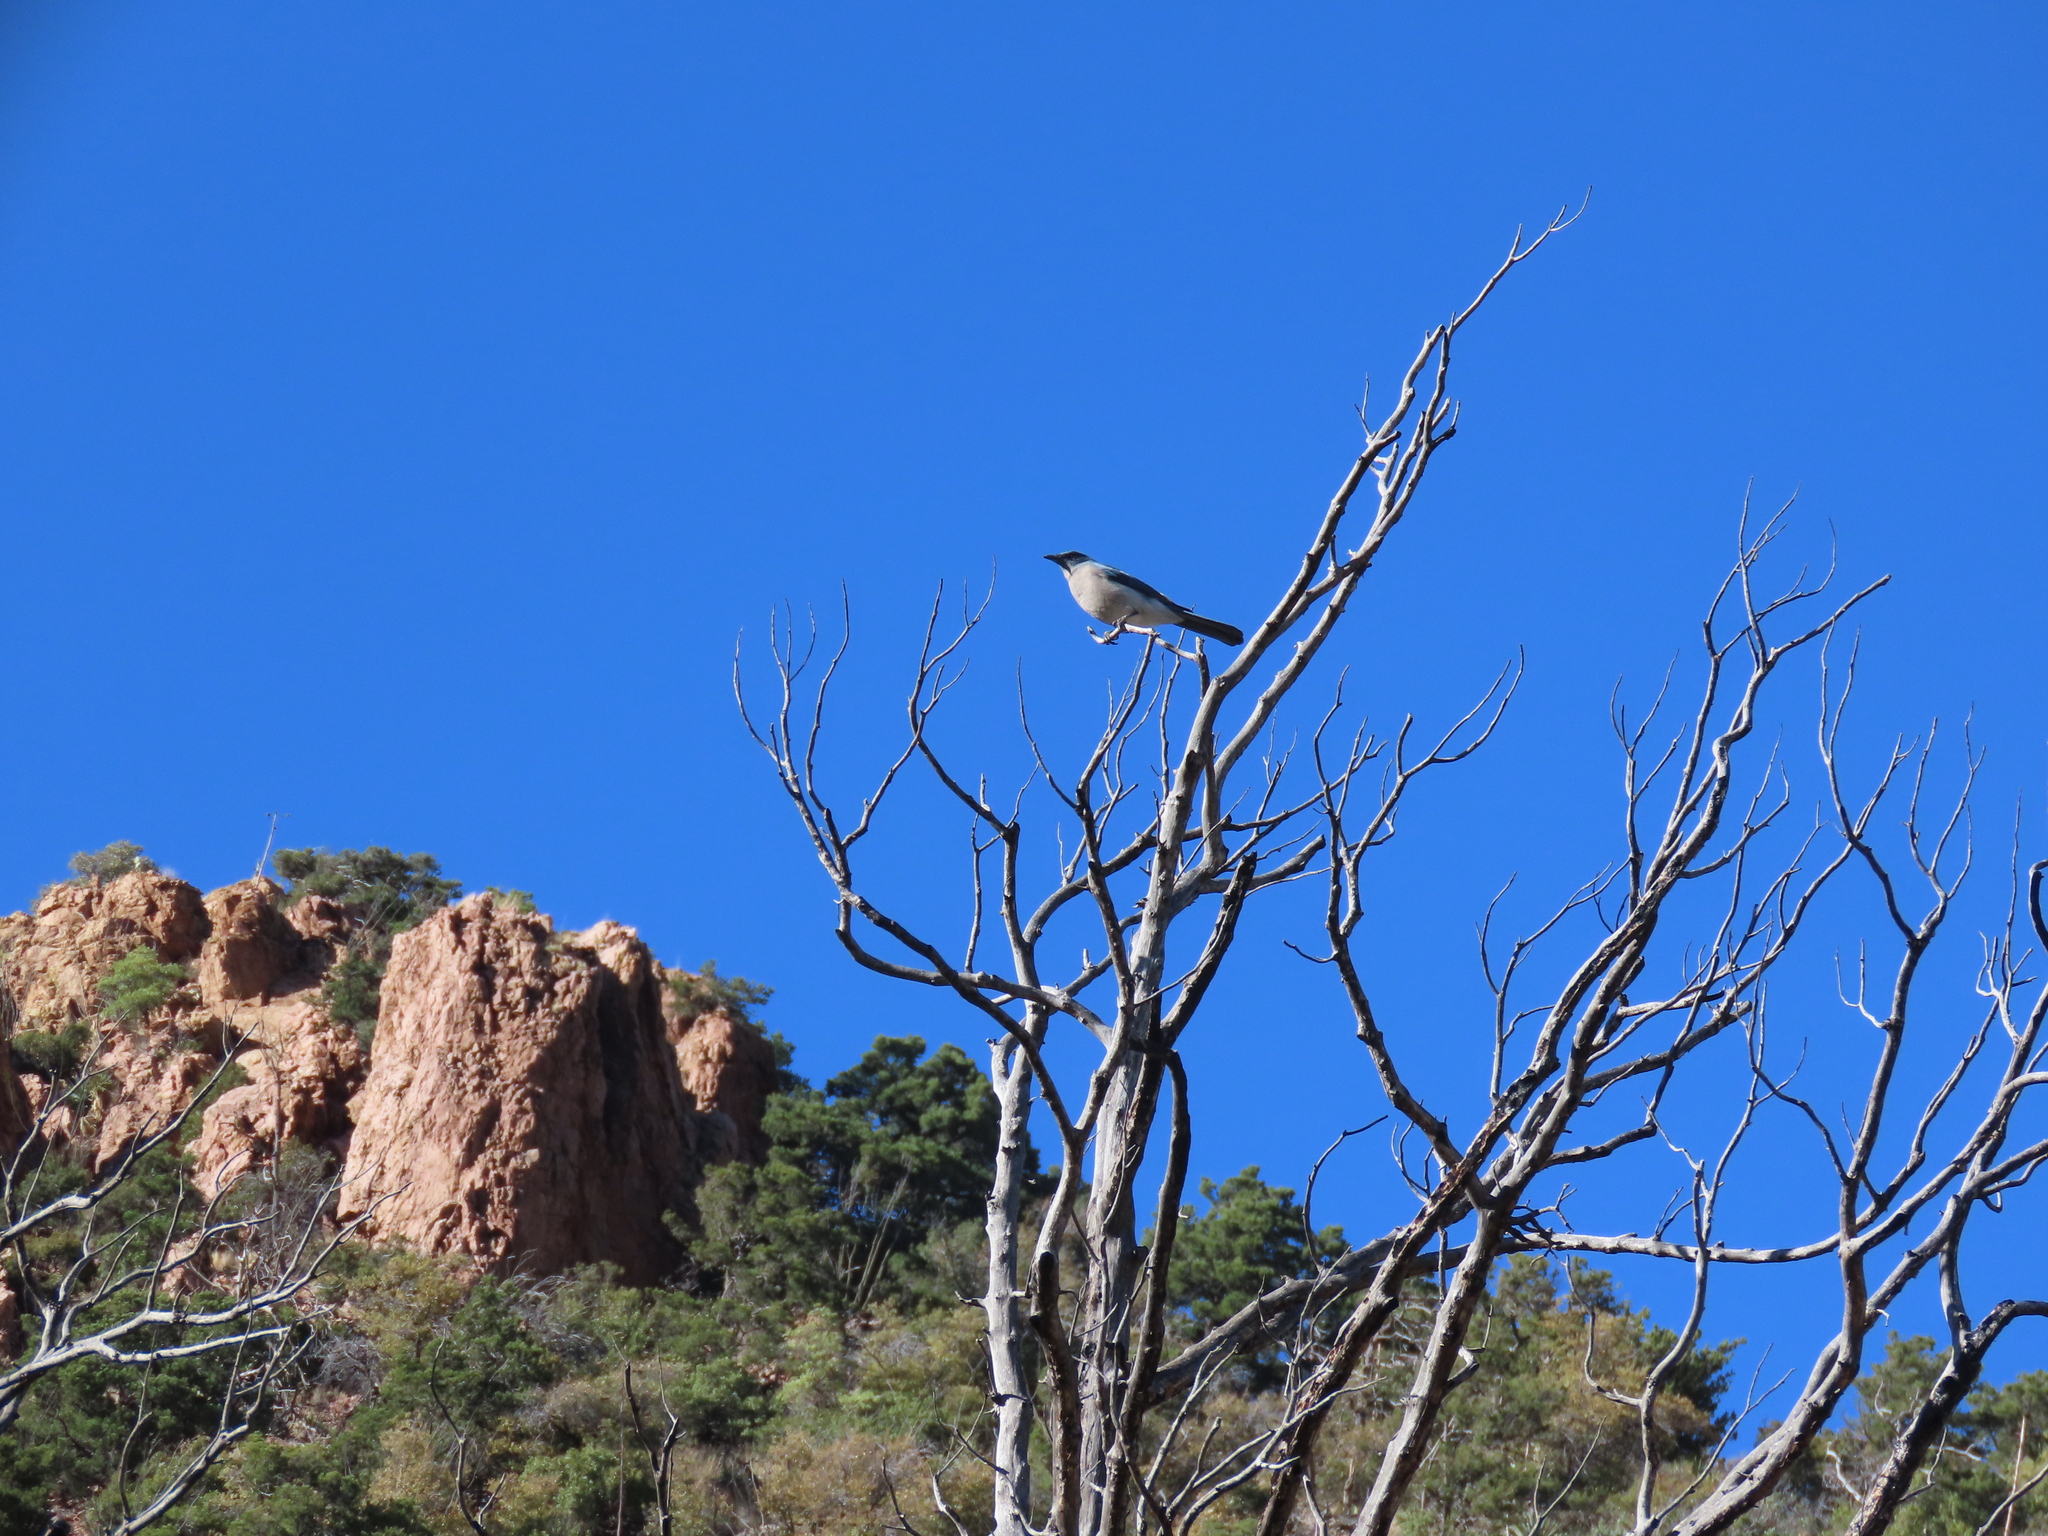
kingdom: Animalia
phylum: Chordata
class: Aves
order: Passeriformes
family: Corvidae
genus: Aphelocoma
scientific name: Aphelocoma wollweberi
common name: Mexican jay
